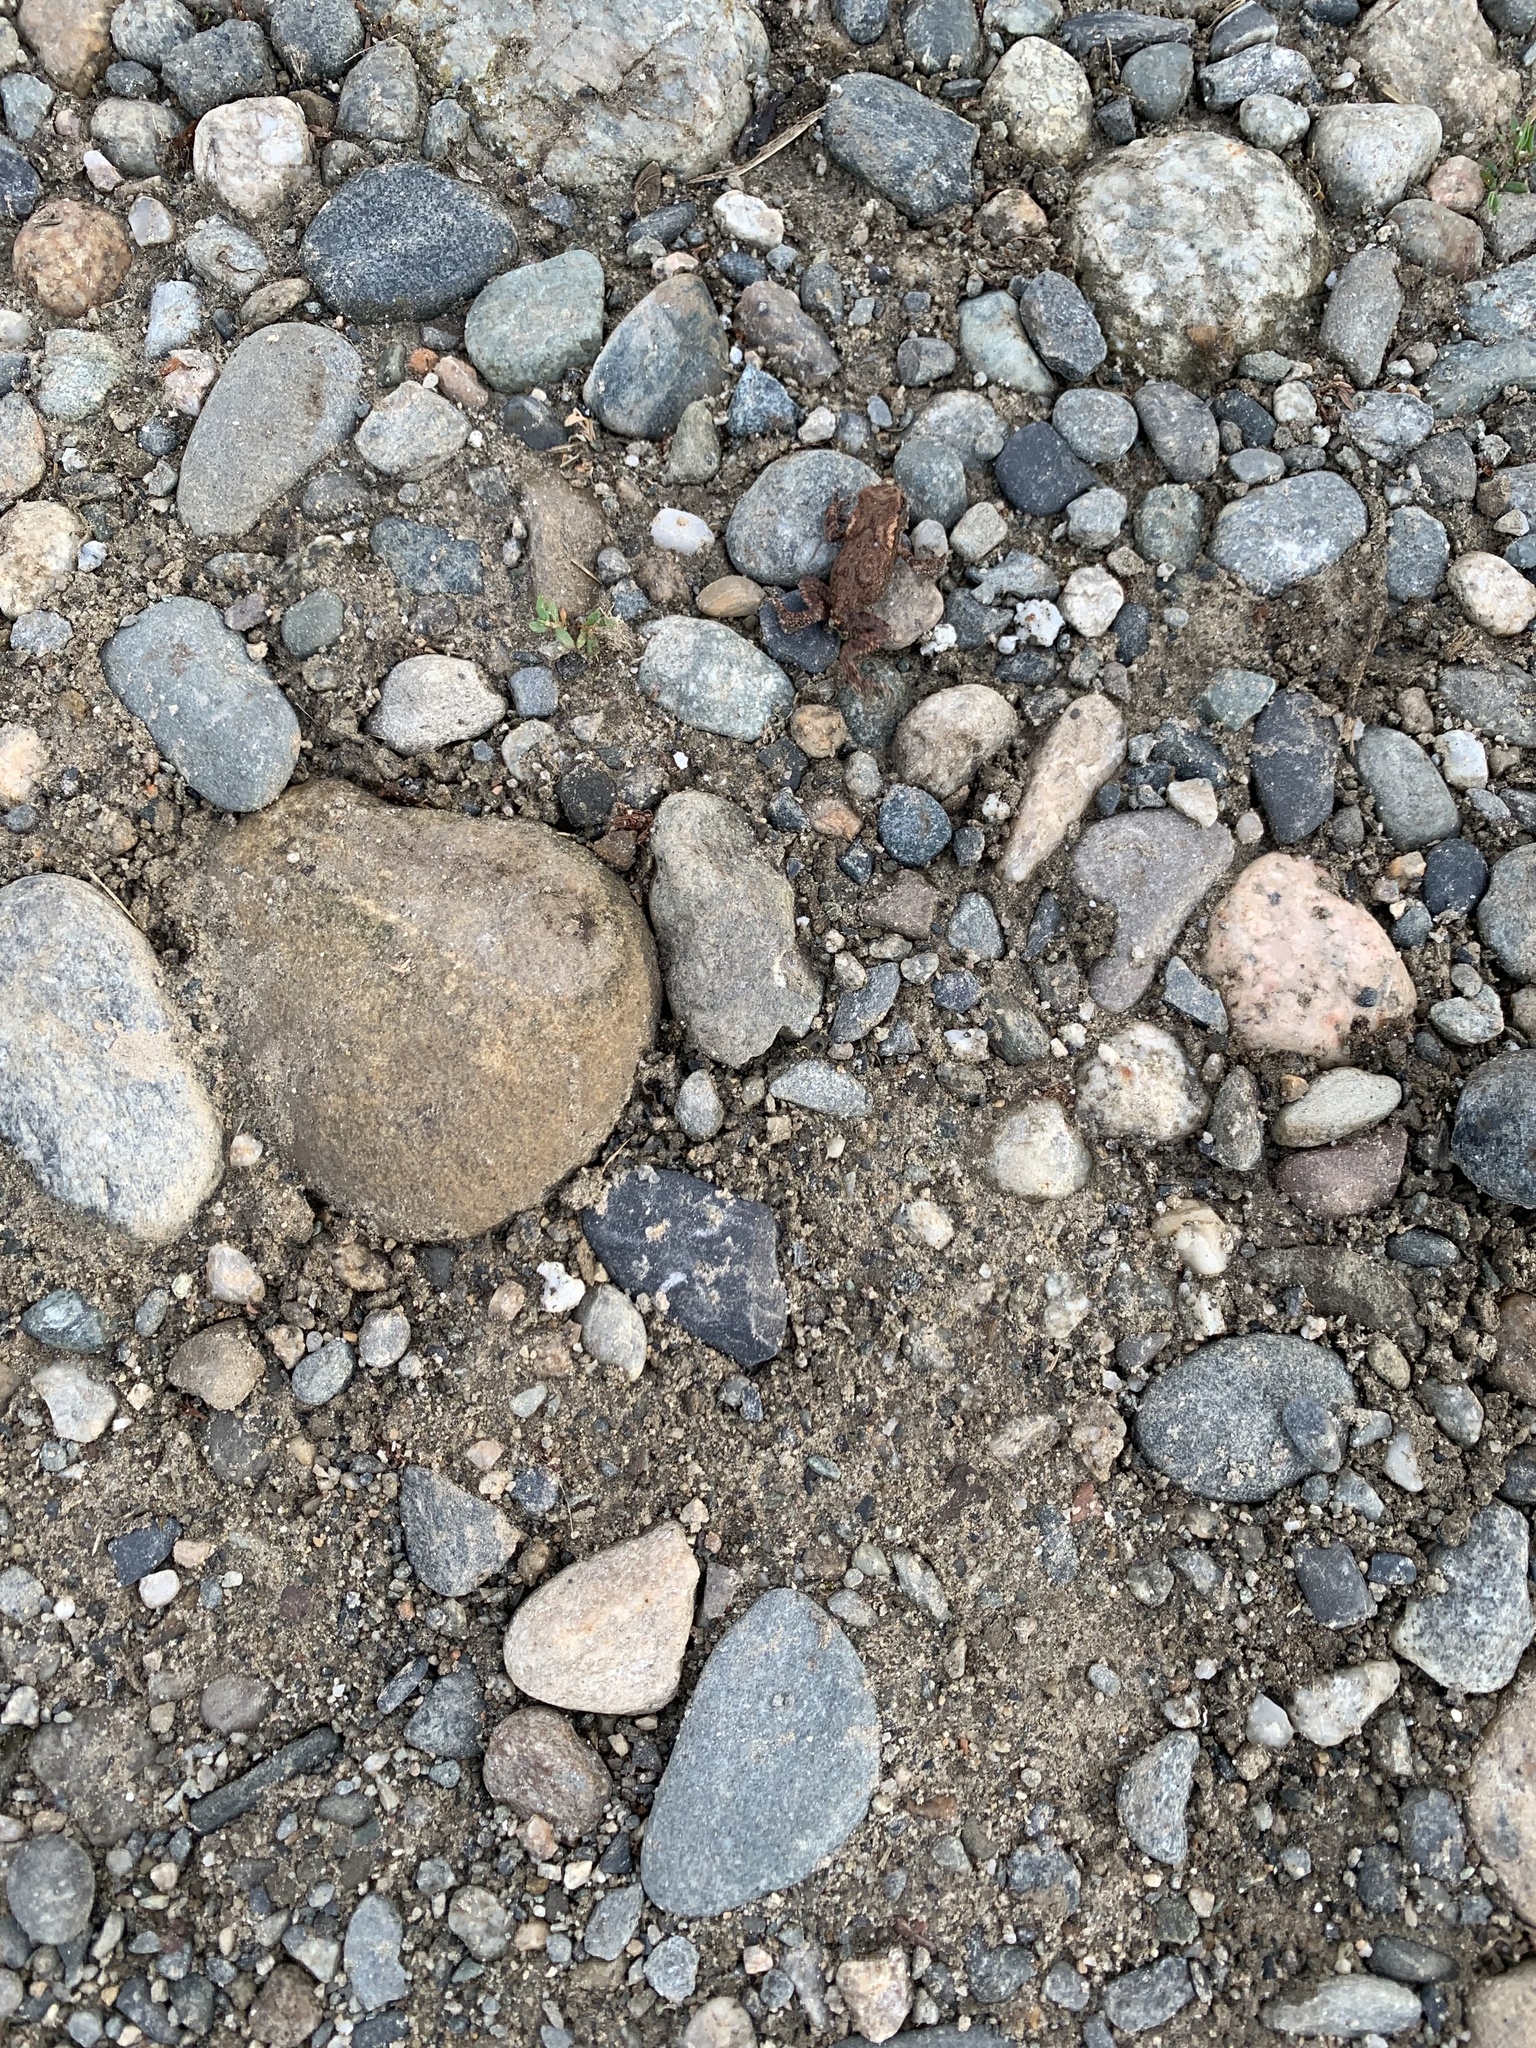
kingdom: Animalia
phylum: Chordata
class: Amphibia
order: Anura
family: Bufonidae
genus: Bufo
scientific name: Bufo verrucosissimus
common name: Caucasian toad
